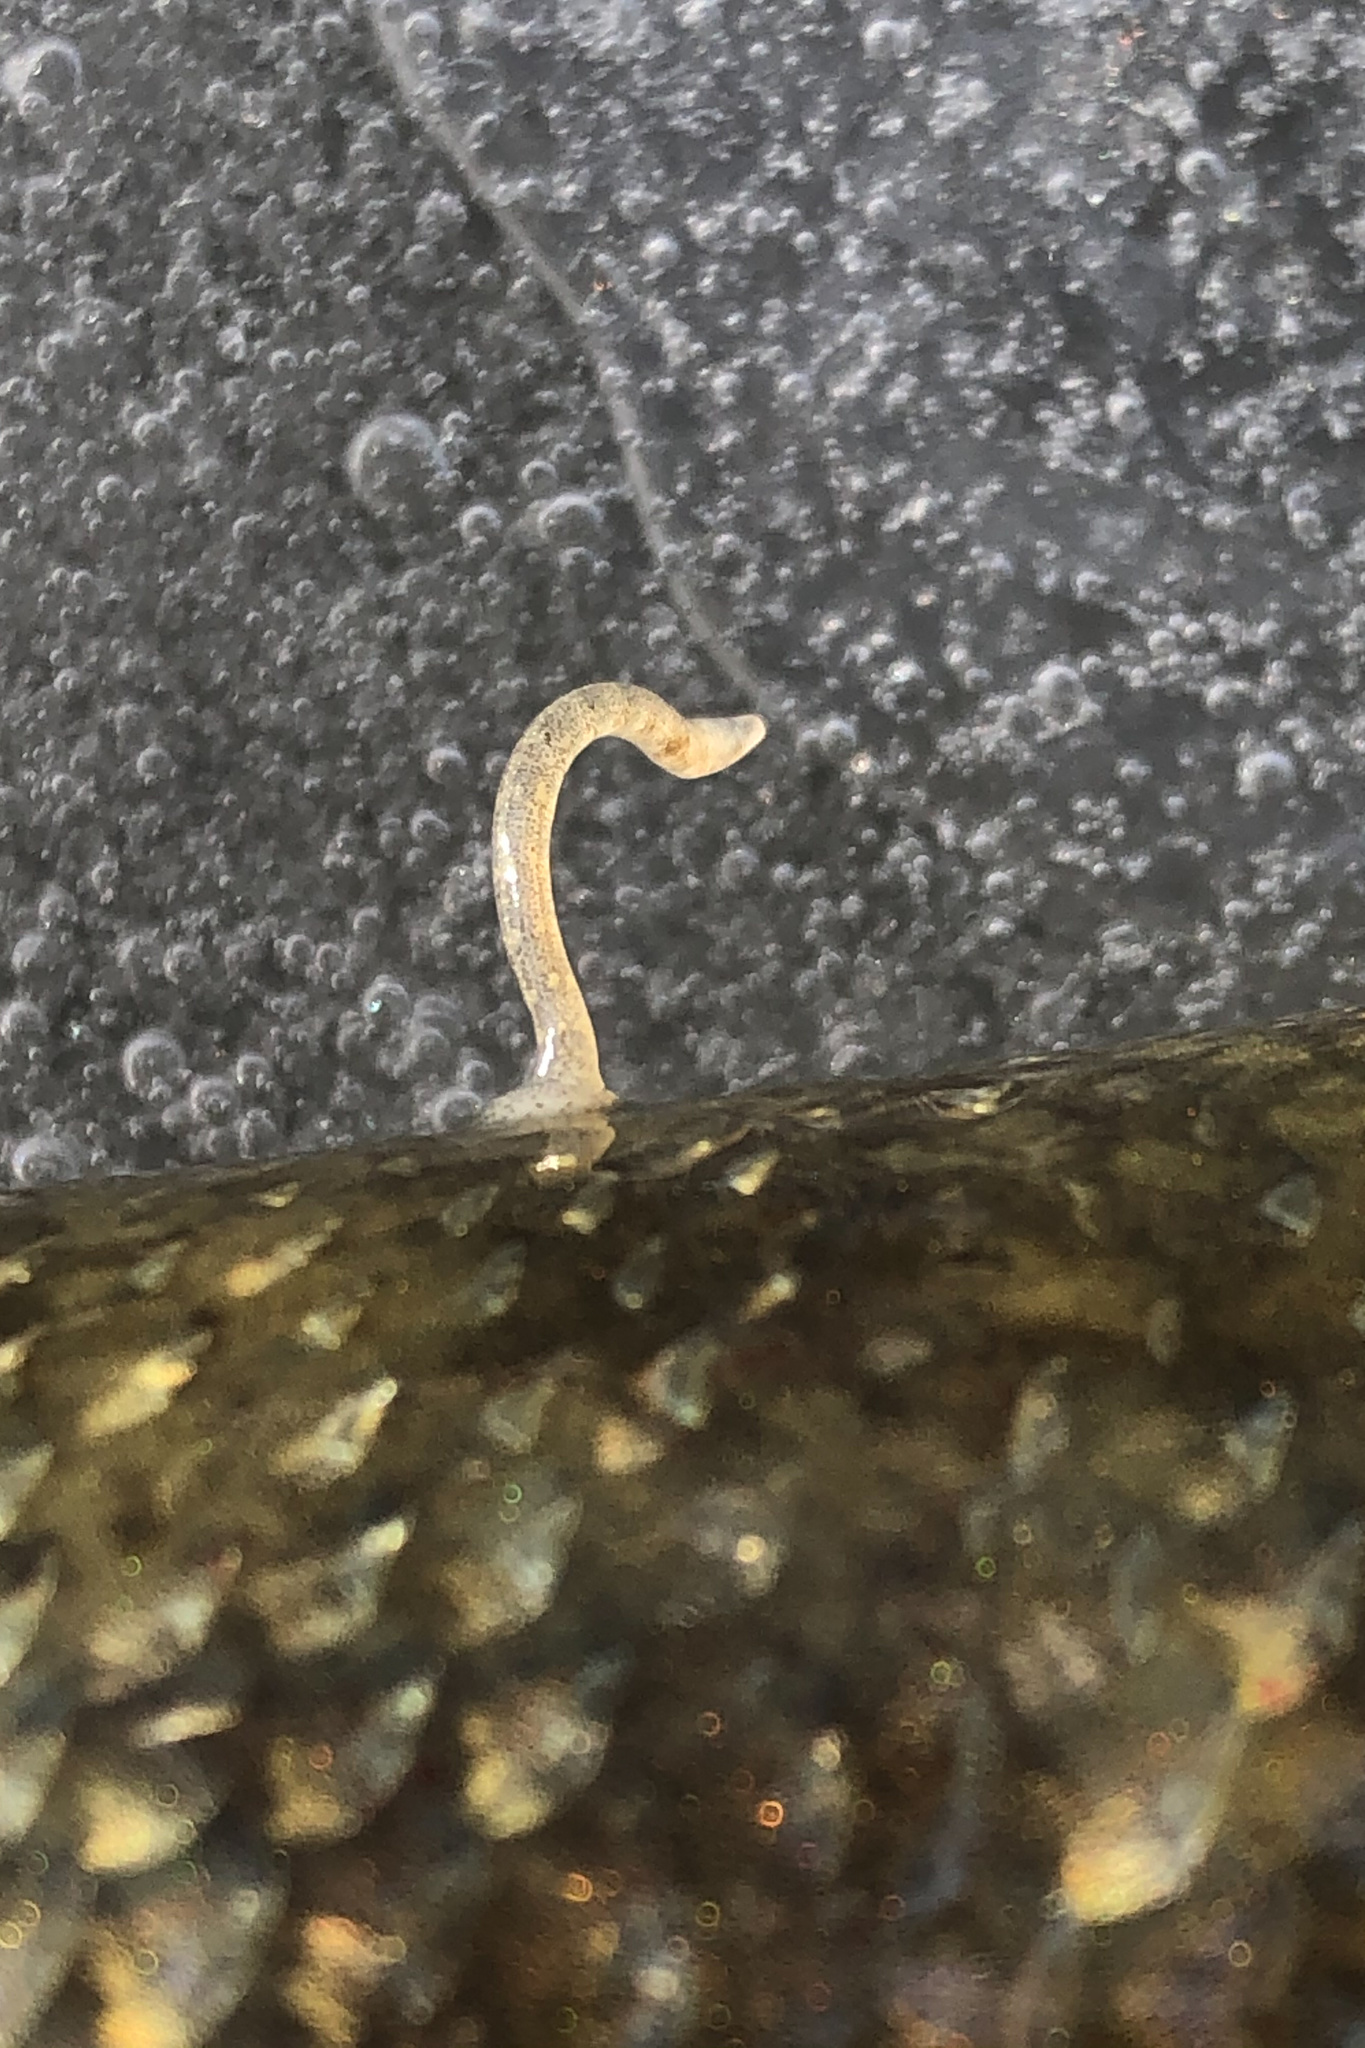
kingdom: Animalia
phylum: Annelida
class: Clitellata
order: Rhynchobdellida
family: Piscicolidae
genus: Piscicola
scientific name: Piscicola geometra
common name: Fish leech
